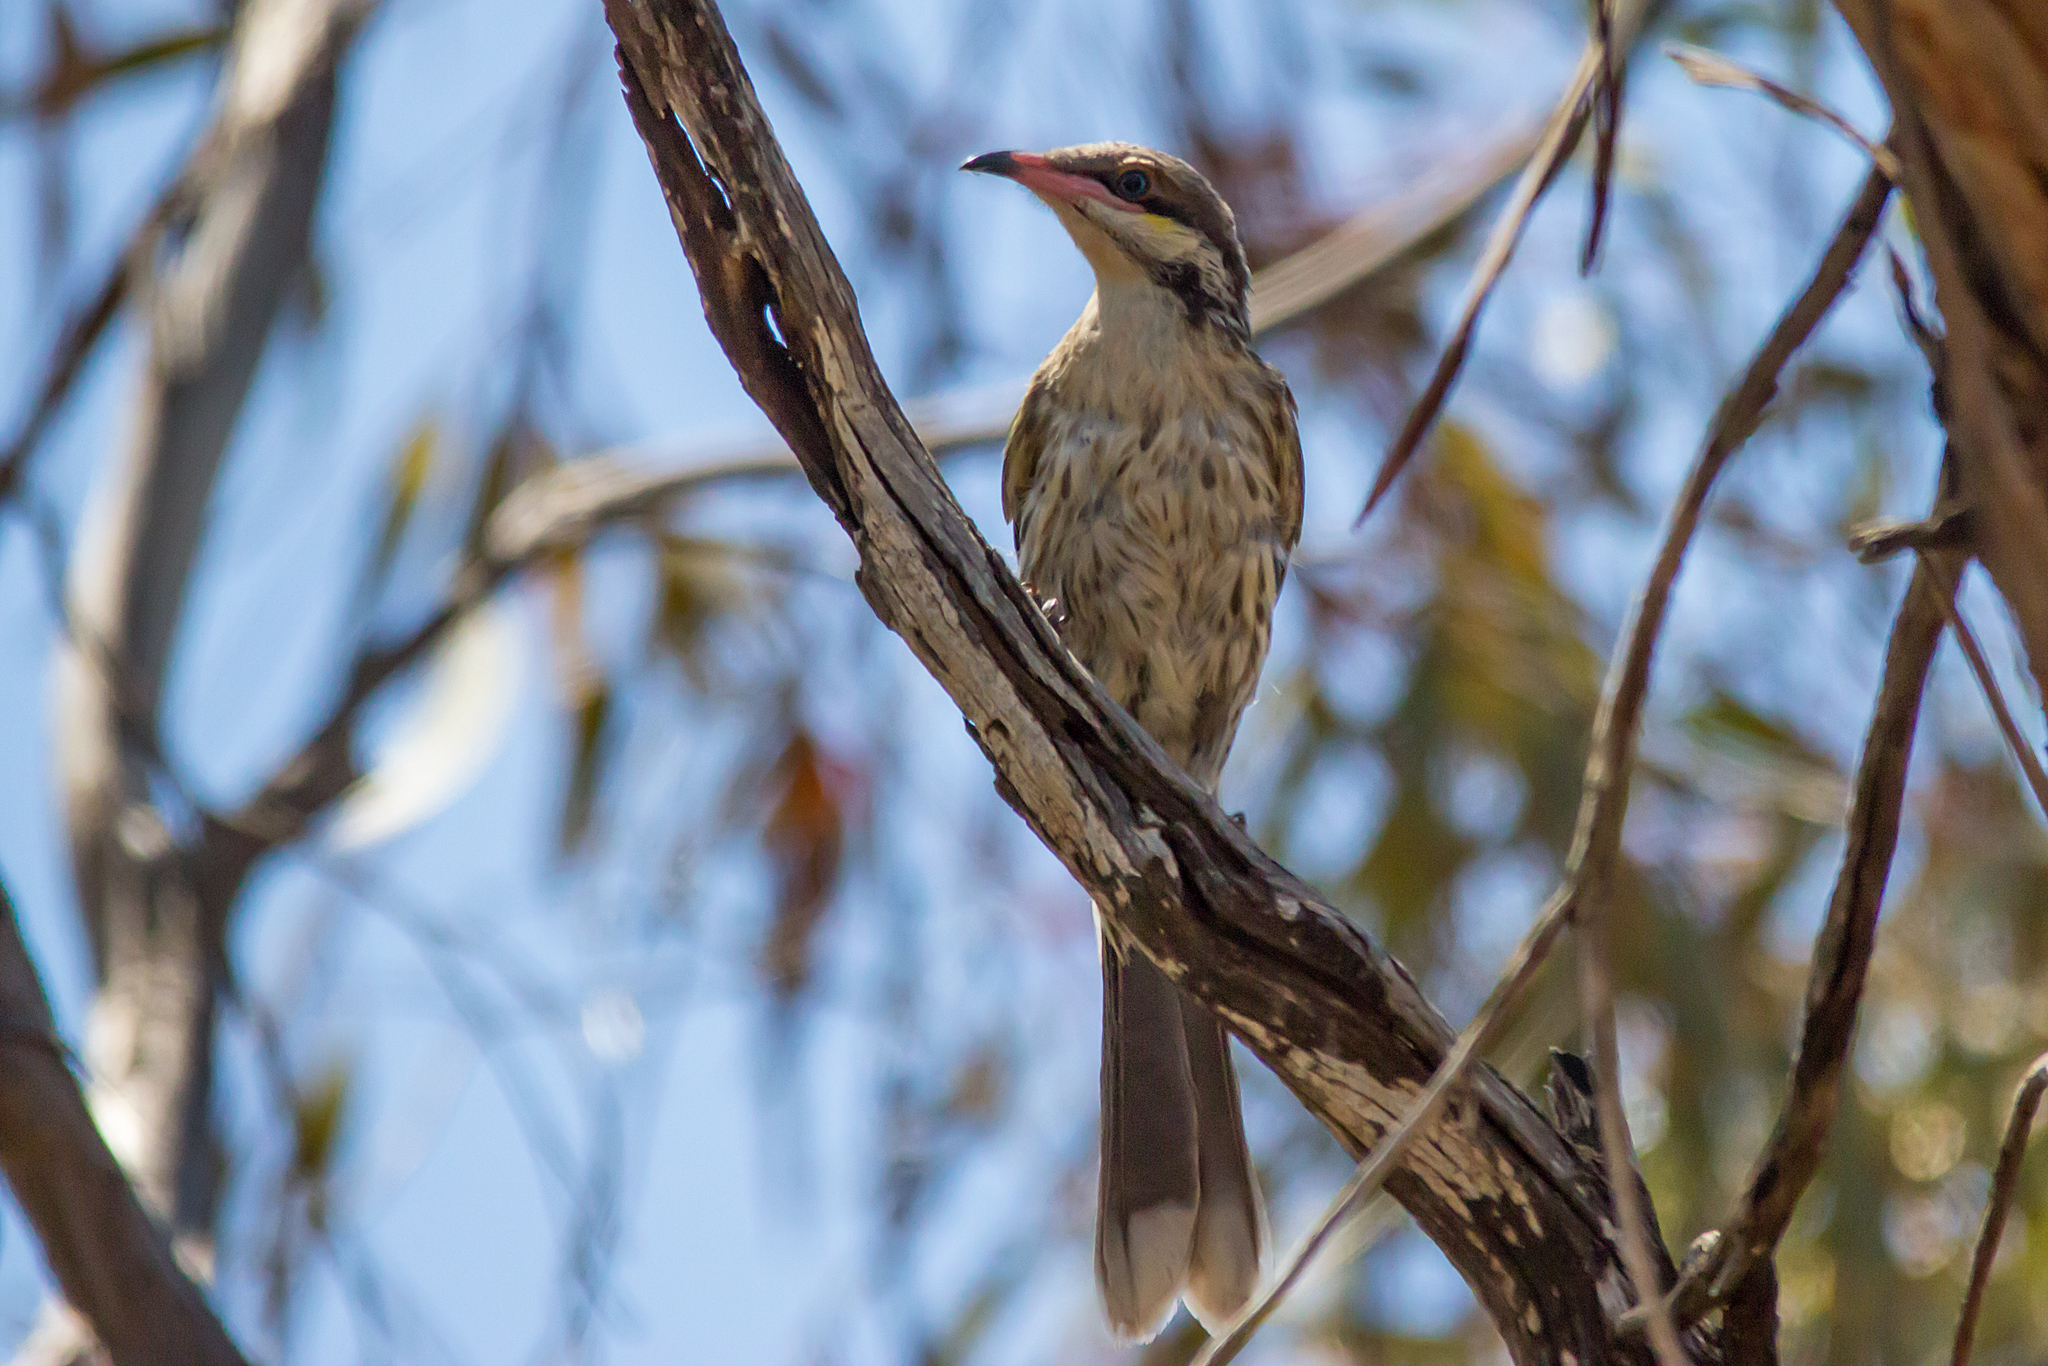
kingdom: Animalia
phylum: Chordata
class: Aves
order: Passeriformes
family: Meliphagidae
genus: Acanthagenys
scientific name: Acanthagenys rufogularis
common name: Spiny-cheeked honeyeater
